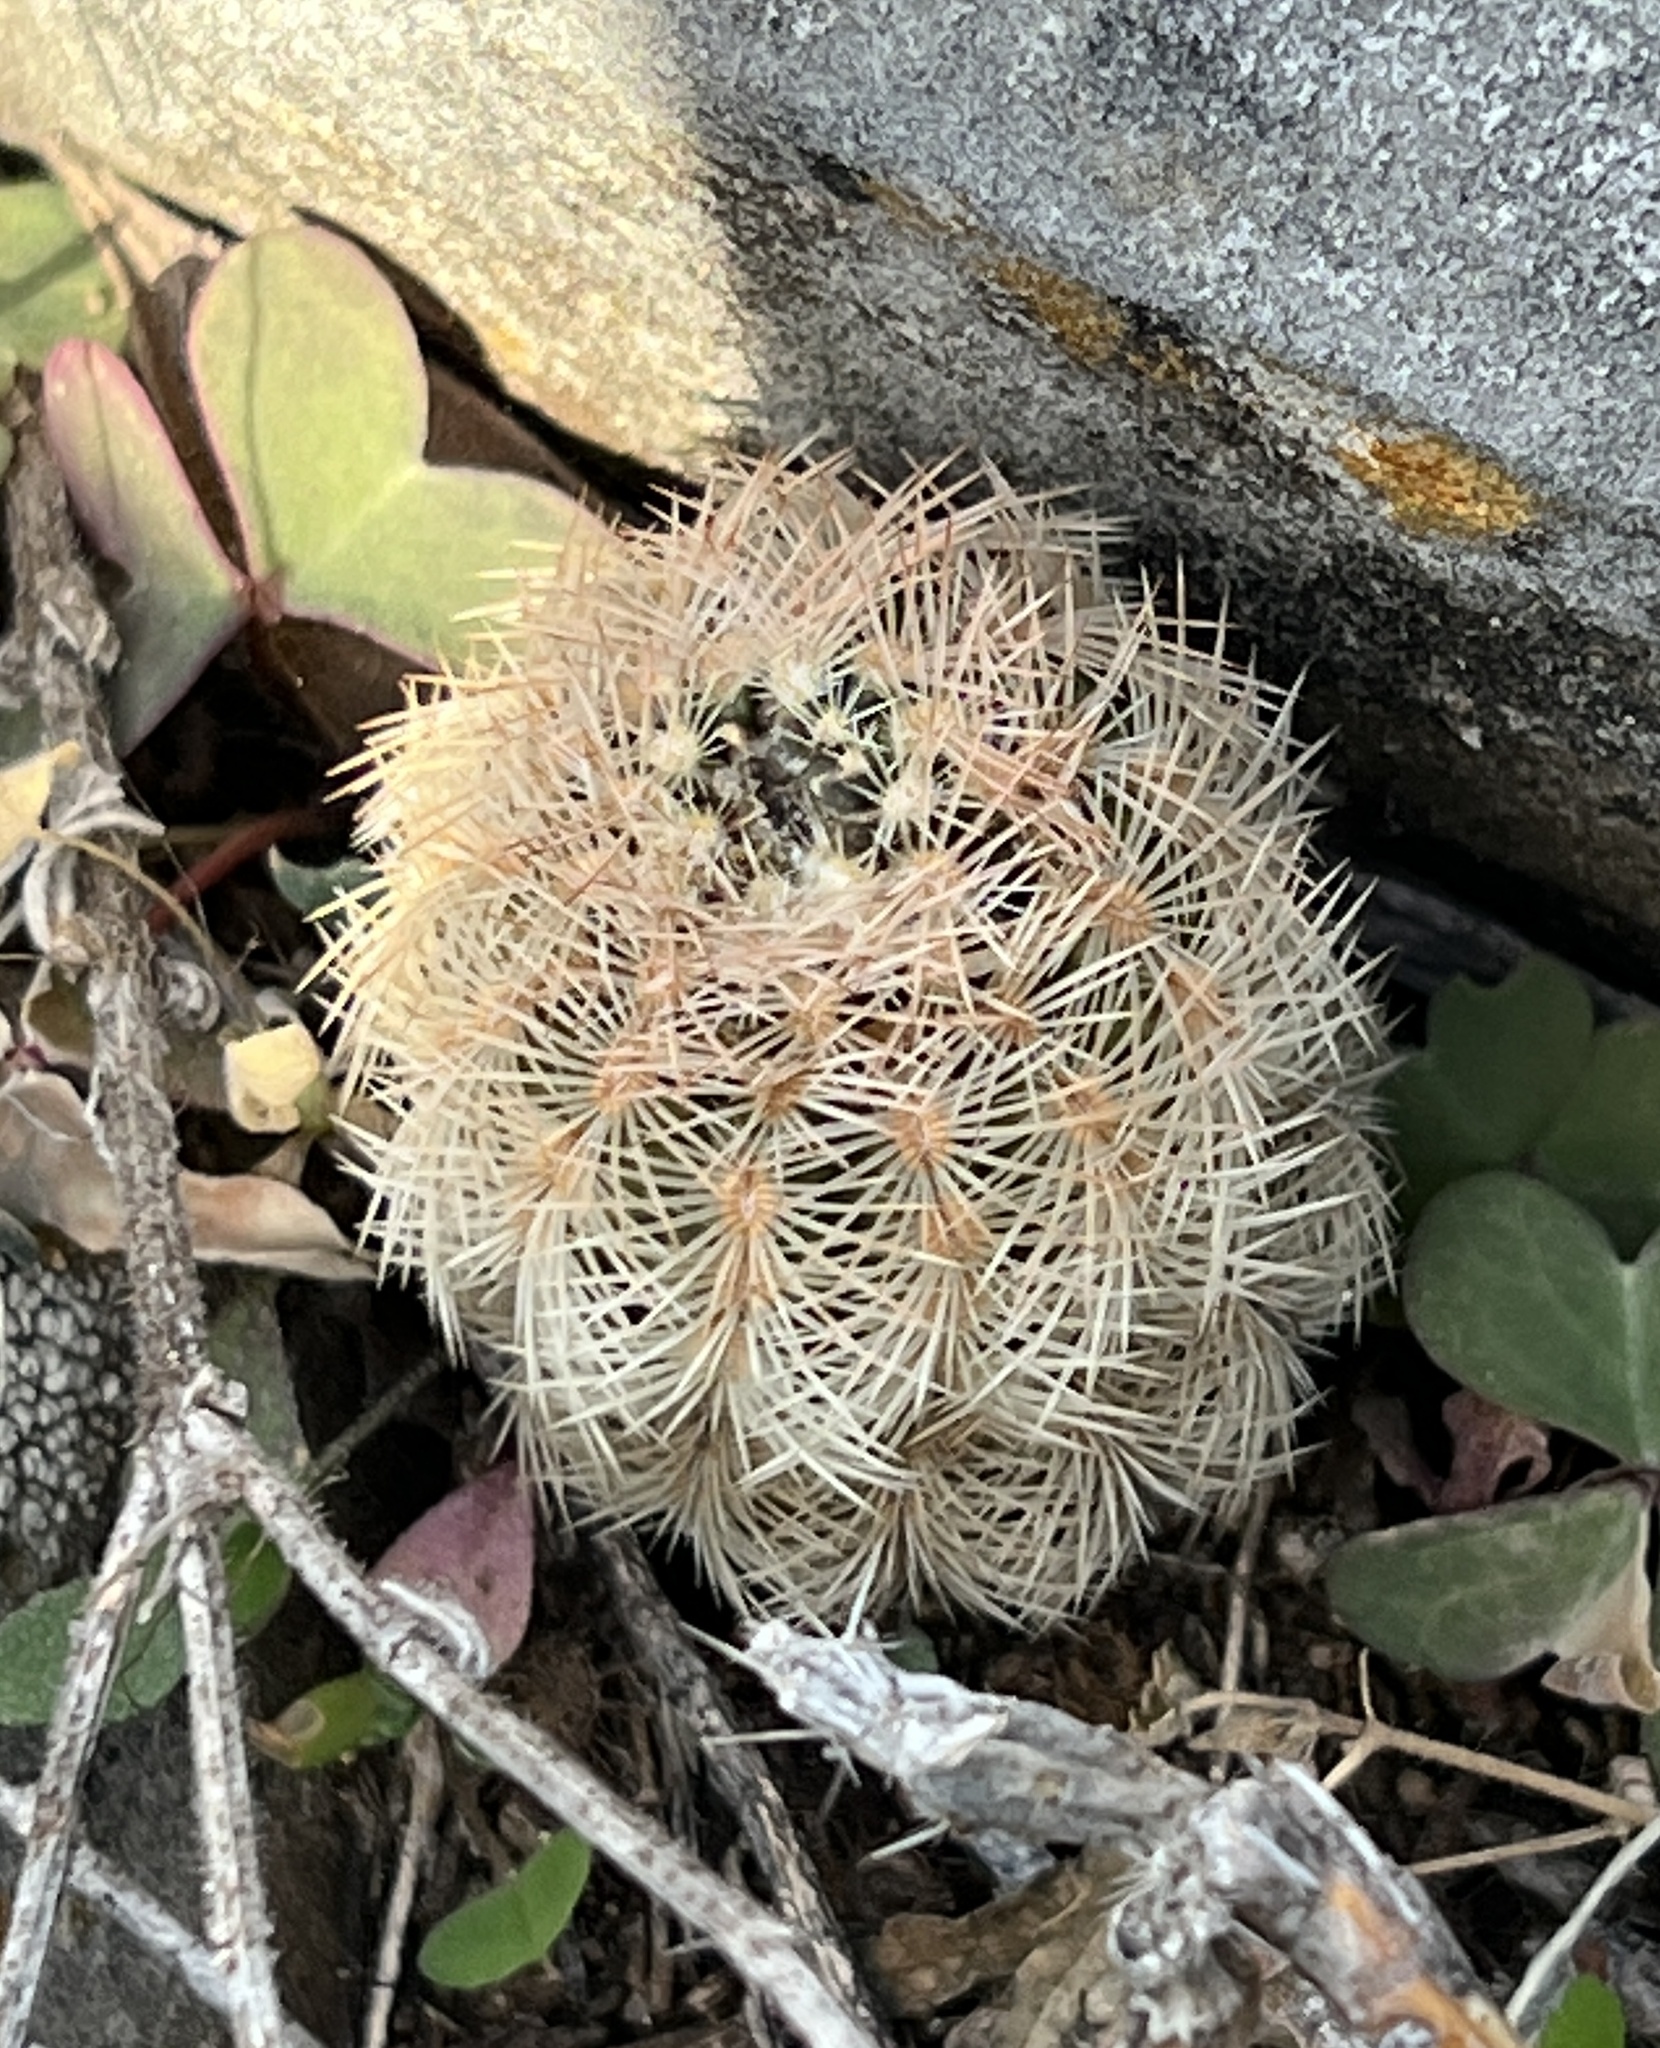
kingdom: Plantae
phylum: Tracheophyta
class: Magnoliopsida
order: Caryophyllales
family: Cactaceae
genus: Echinocereus
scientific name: Echinocereus reichenbachii
